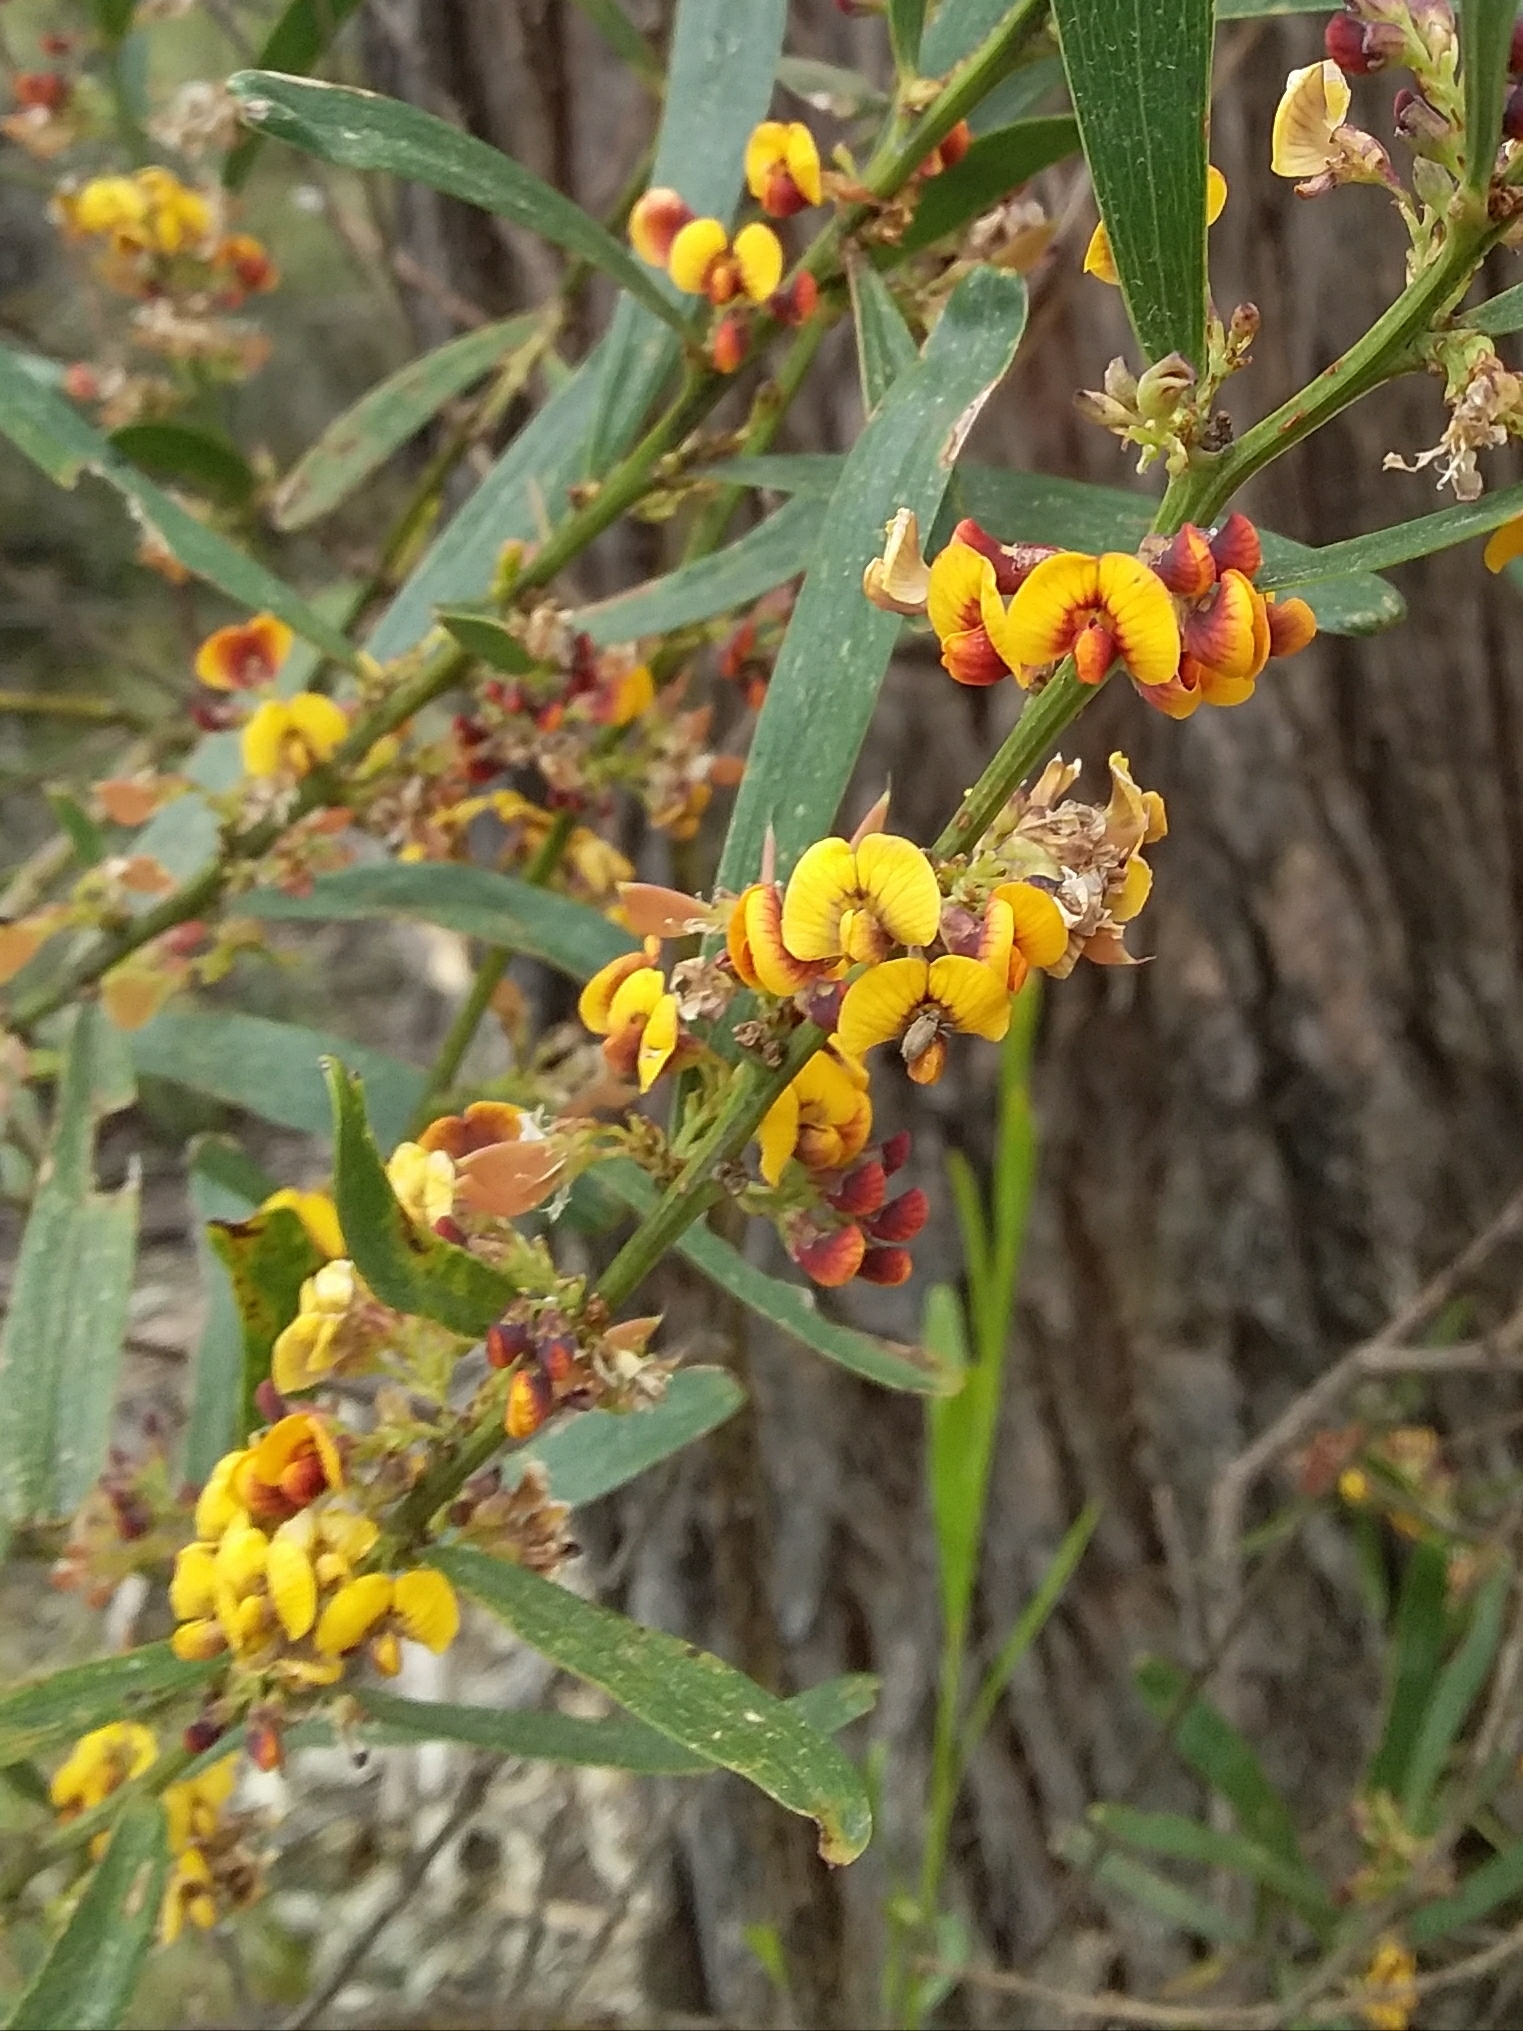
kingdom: Plantae
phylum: Tracheophyta
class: Magnoliopsida
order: Fabales
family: Fabaceae
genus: Daviesia
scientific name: Daviesia leptophylla
